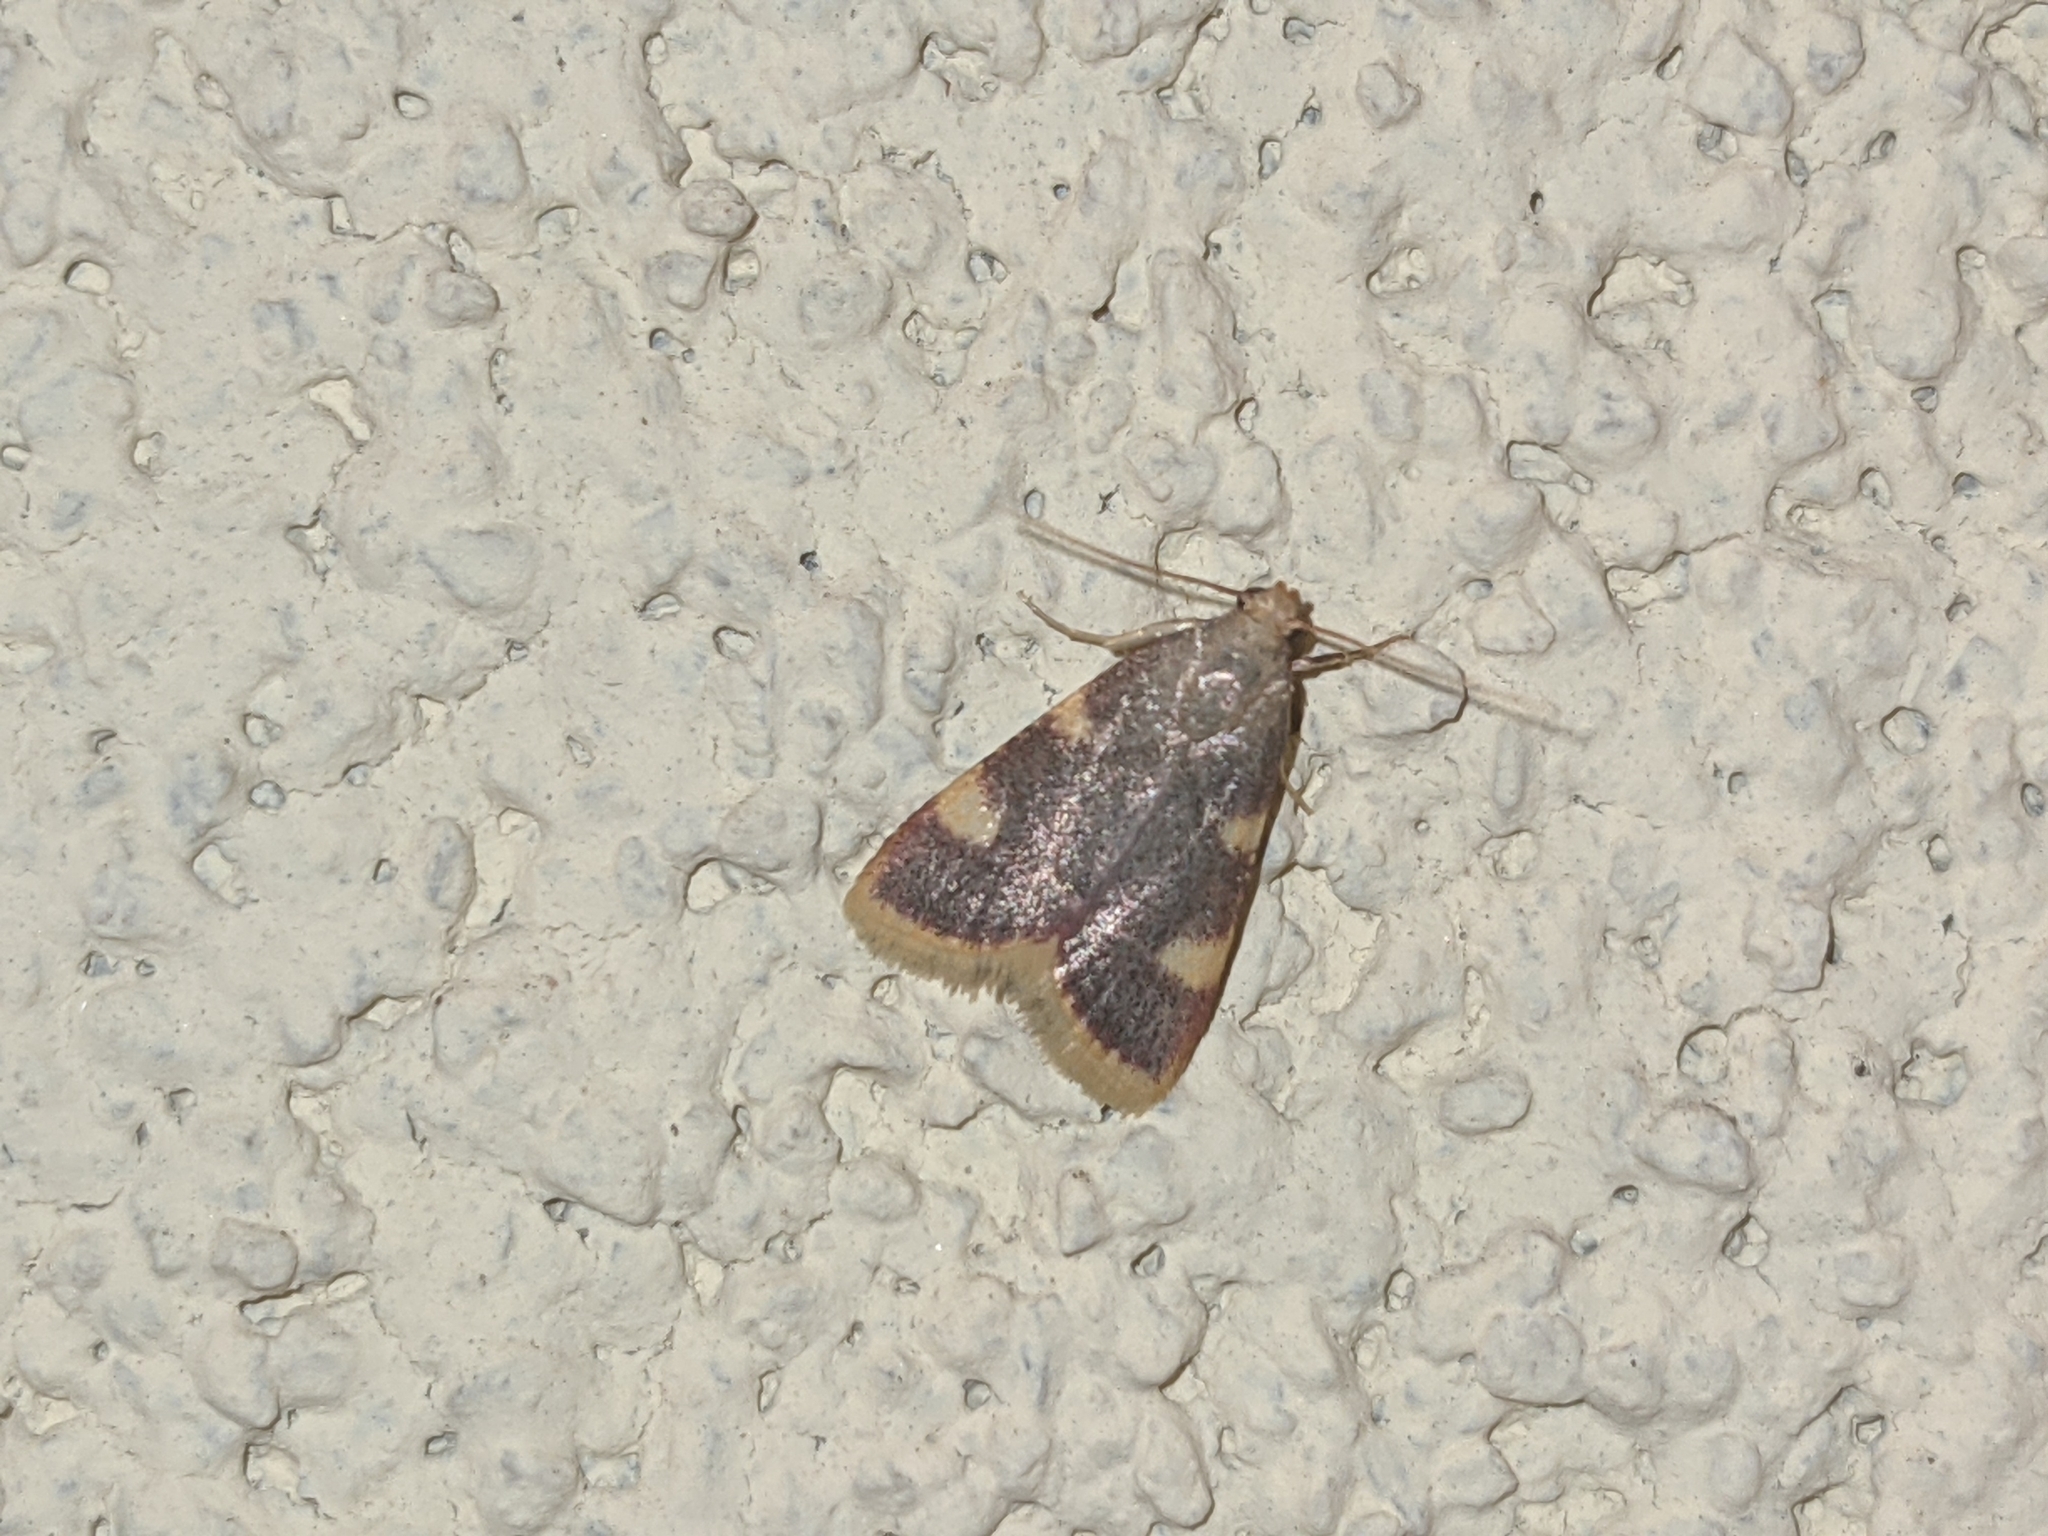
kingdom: Animalia
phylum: Arthropoda
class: Insecta
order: Lepidoptera
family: Pyralidae
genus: Hypsopygia
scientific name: Hypsopygia costalis
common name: Gold triangle
